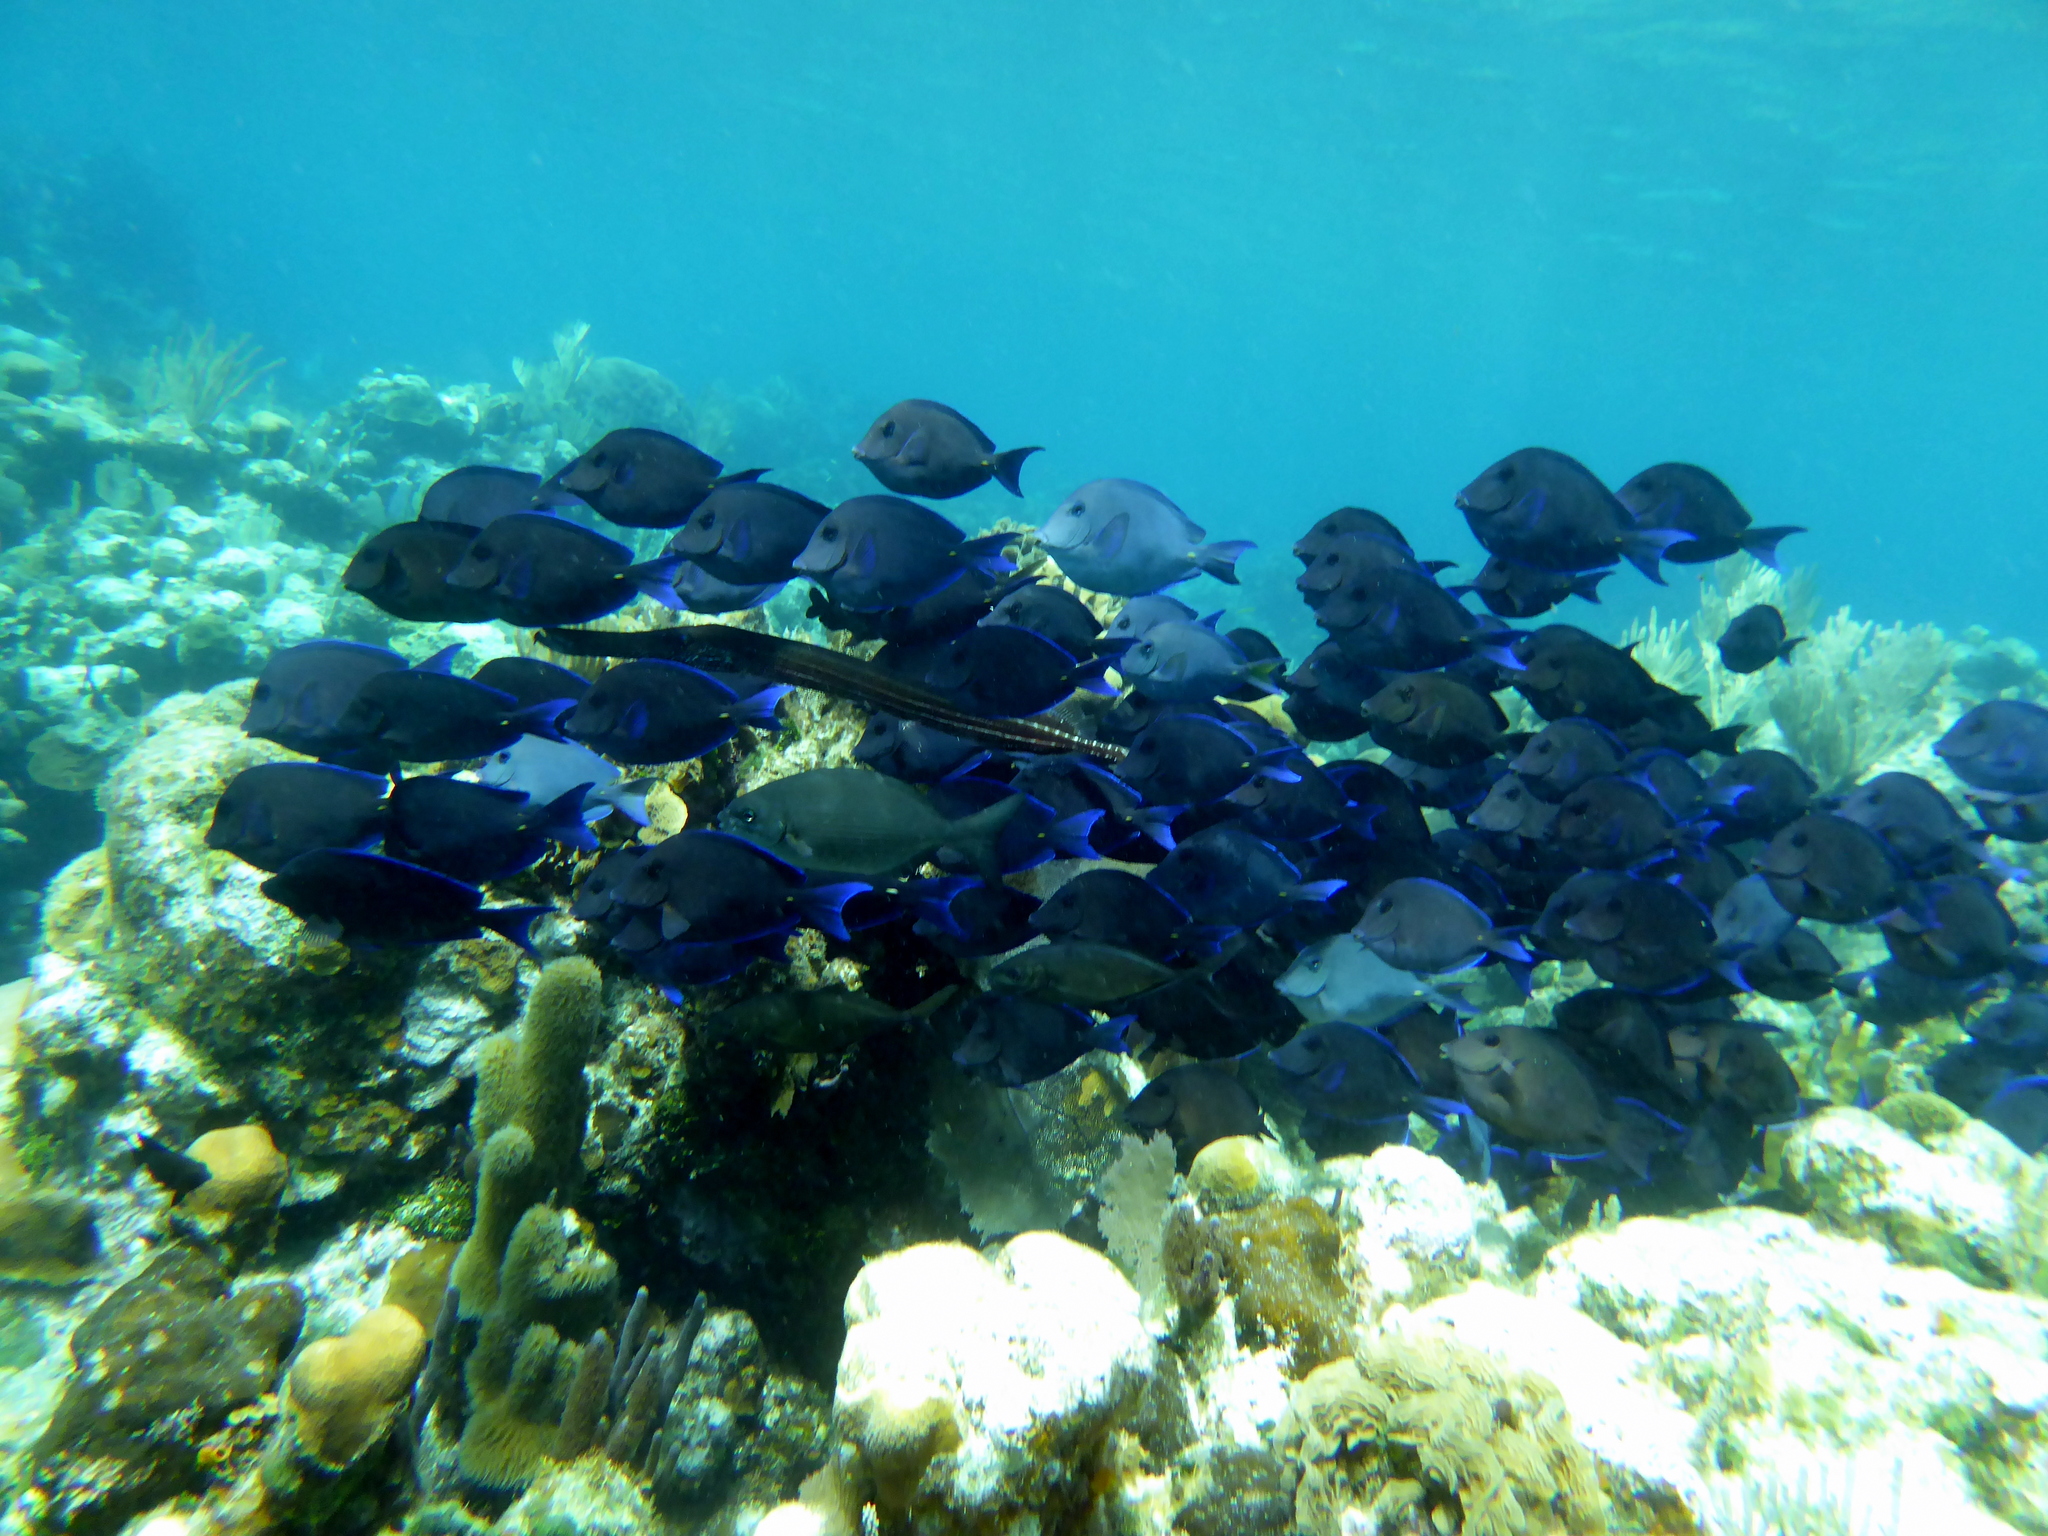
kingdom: Animalia
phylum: Chordata
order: Perciformes
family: Acanthuridae
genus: Acanthurus
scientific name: Acanthurus coeruleus
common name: Blue tang
